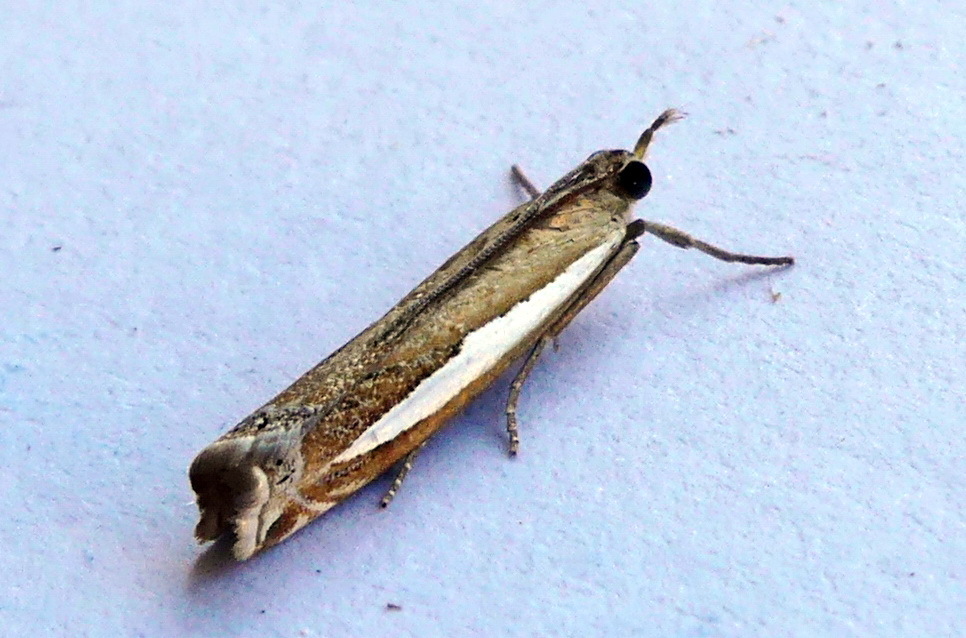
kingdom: Animalia
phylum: Arthropoda
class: Insecta
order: Lepidoptera
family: Crambidae
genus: Crambus
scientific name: Crambus praefectellus
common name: Common grass-veneer
